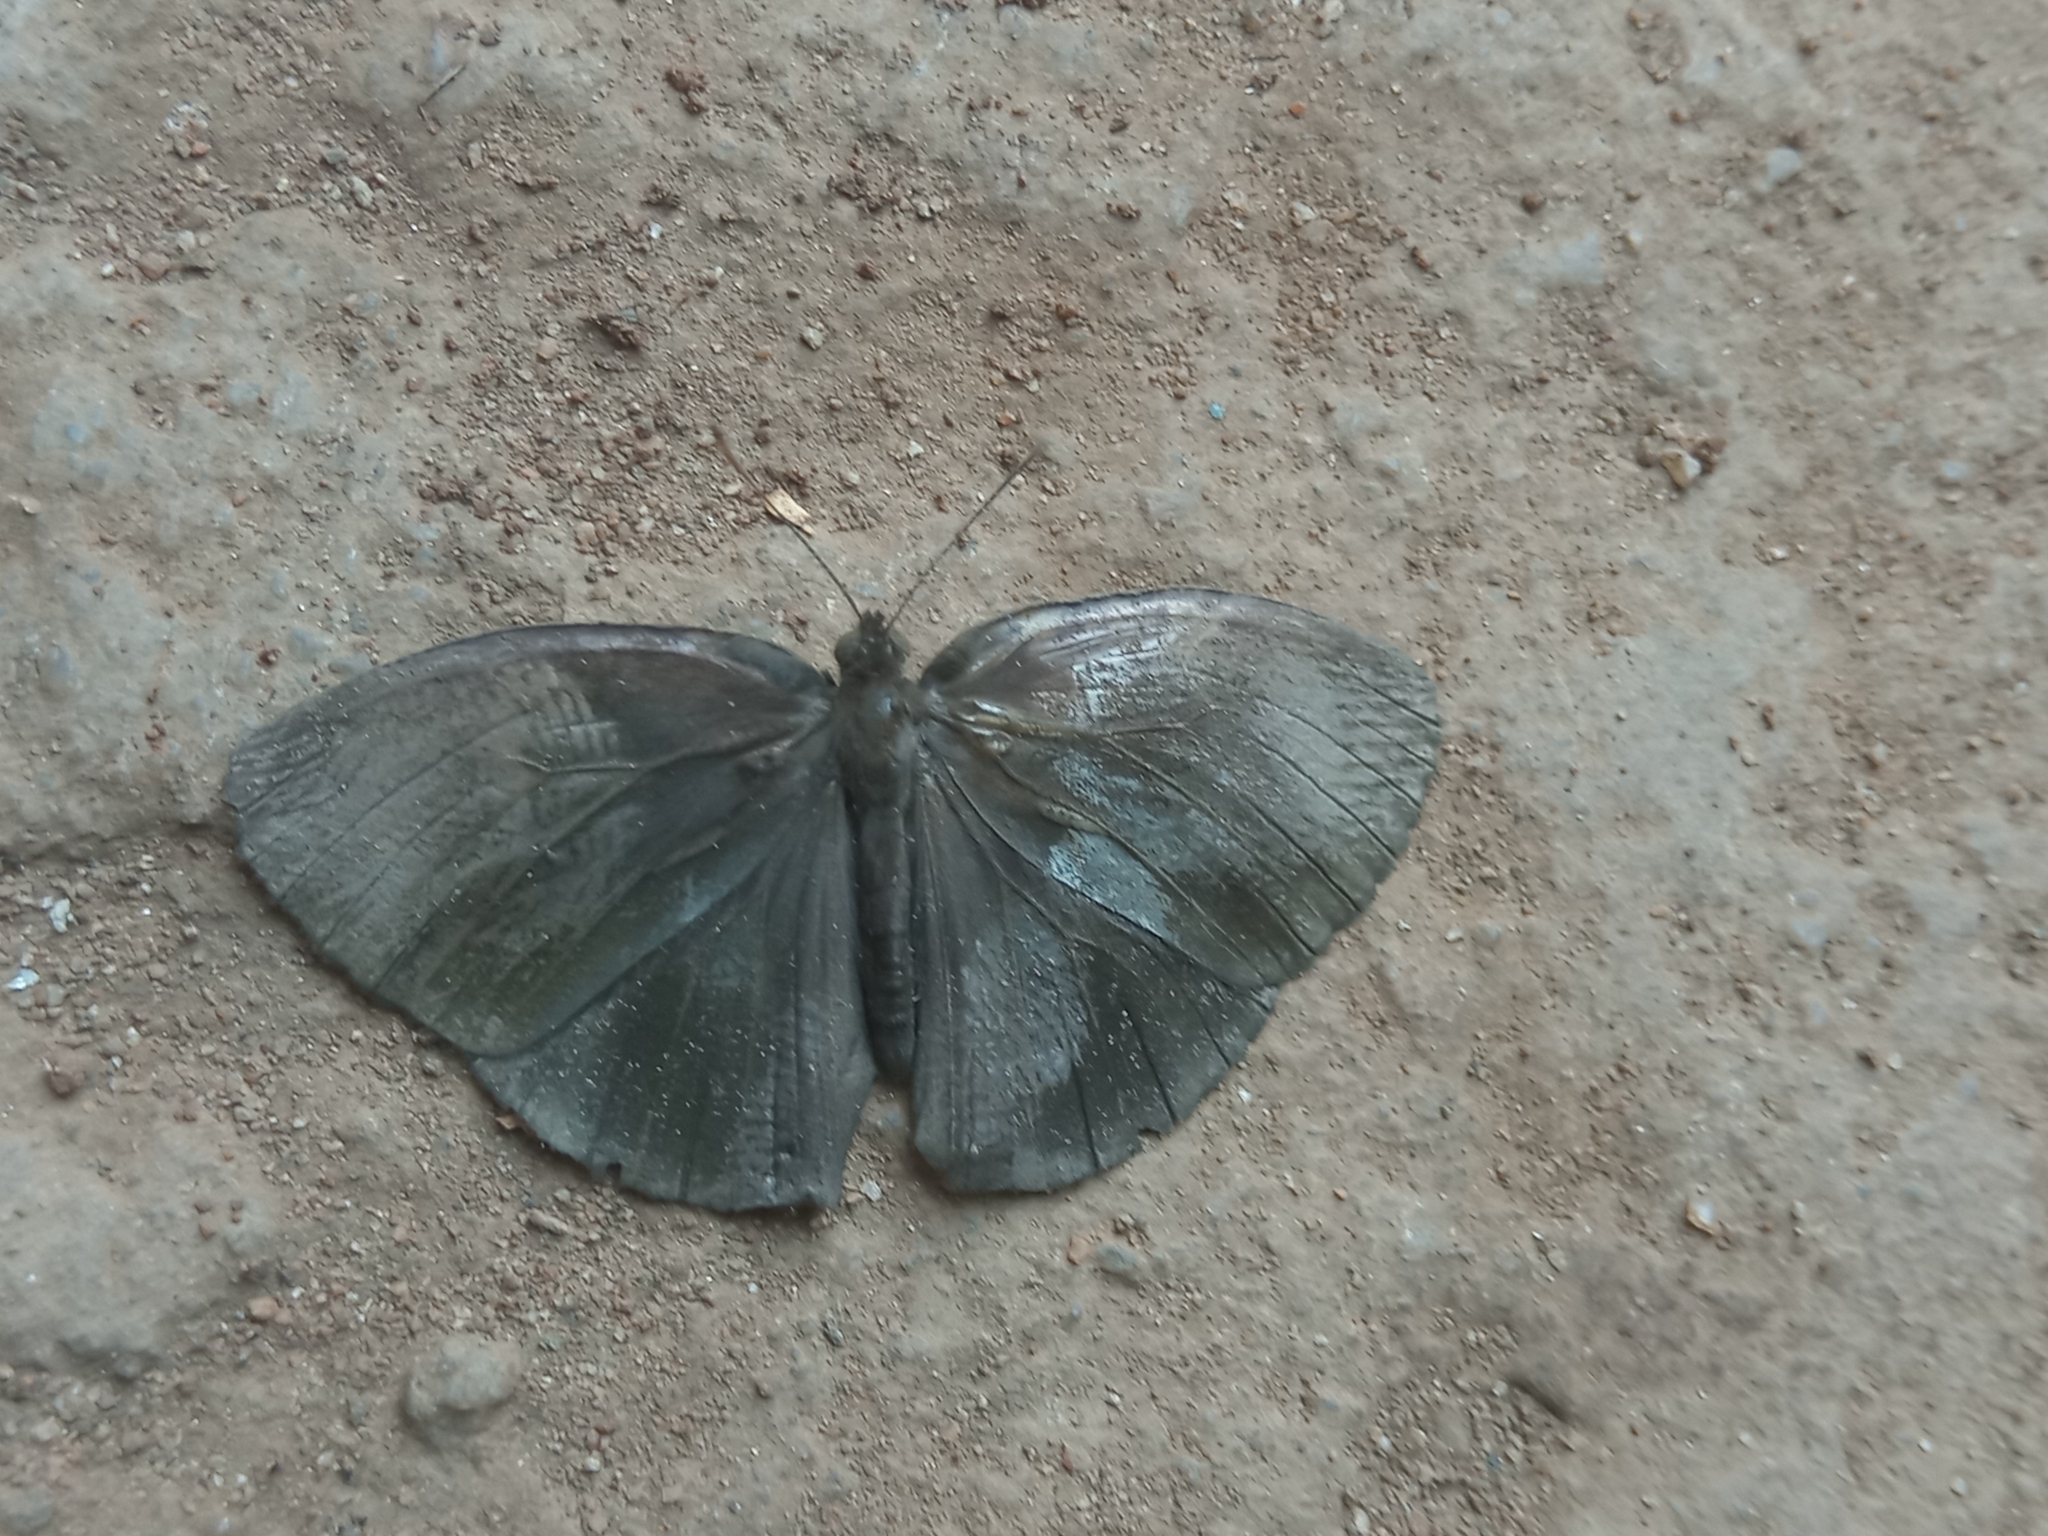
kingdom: Animalia
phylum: Arthropoda
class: Insecta
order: Lepidoptera
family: Nymphalidae
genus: Mycalesis
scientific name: Mycalesis vulgaris
